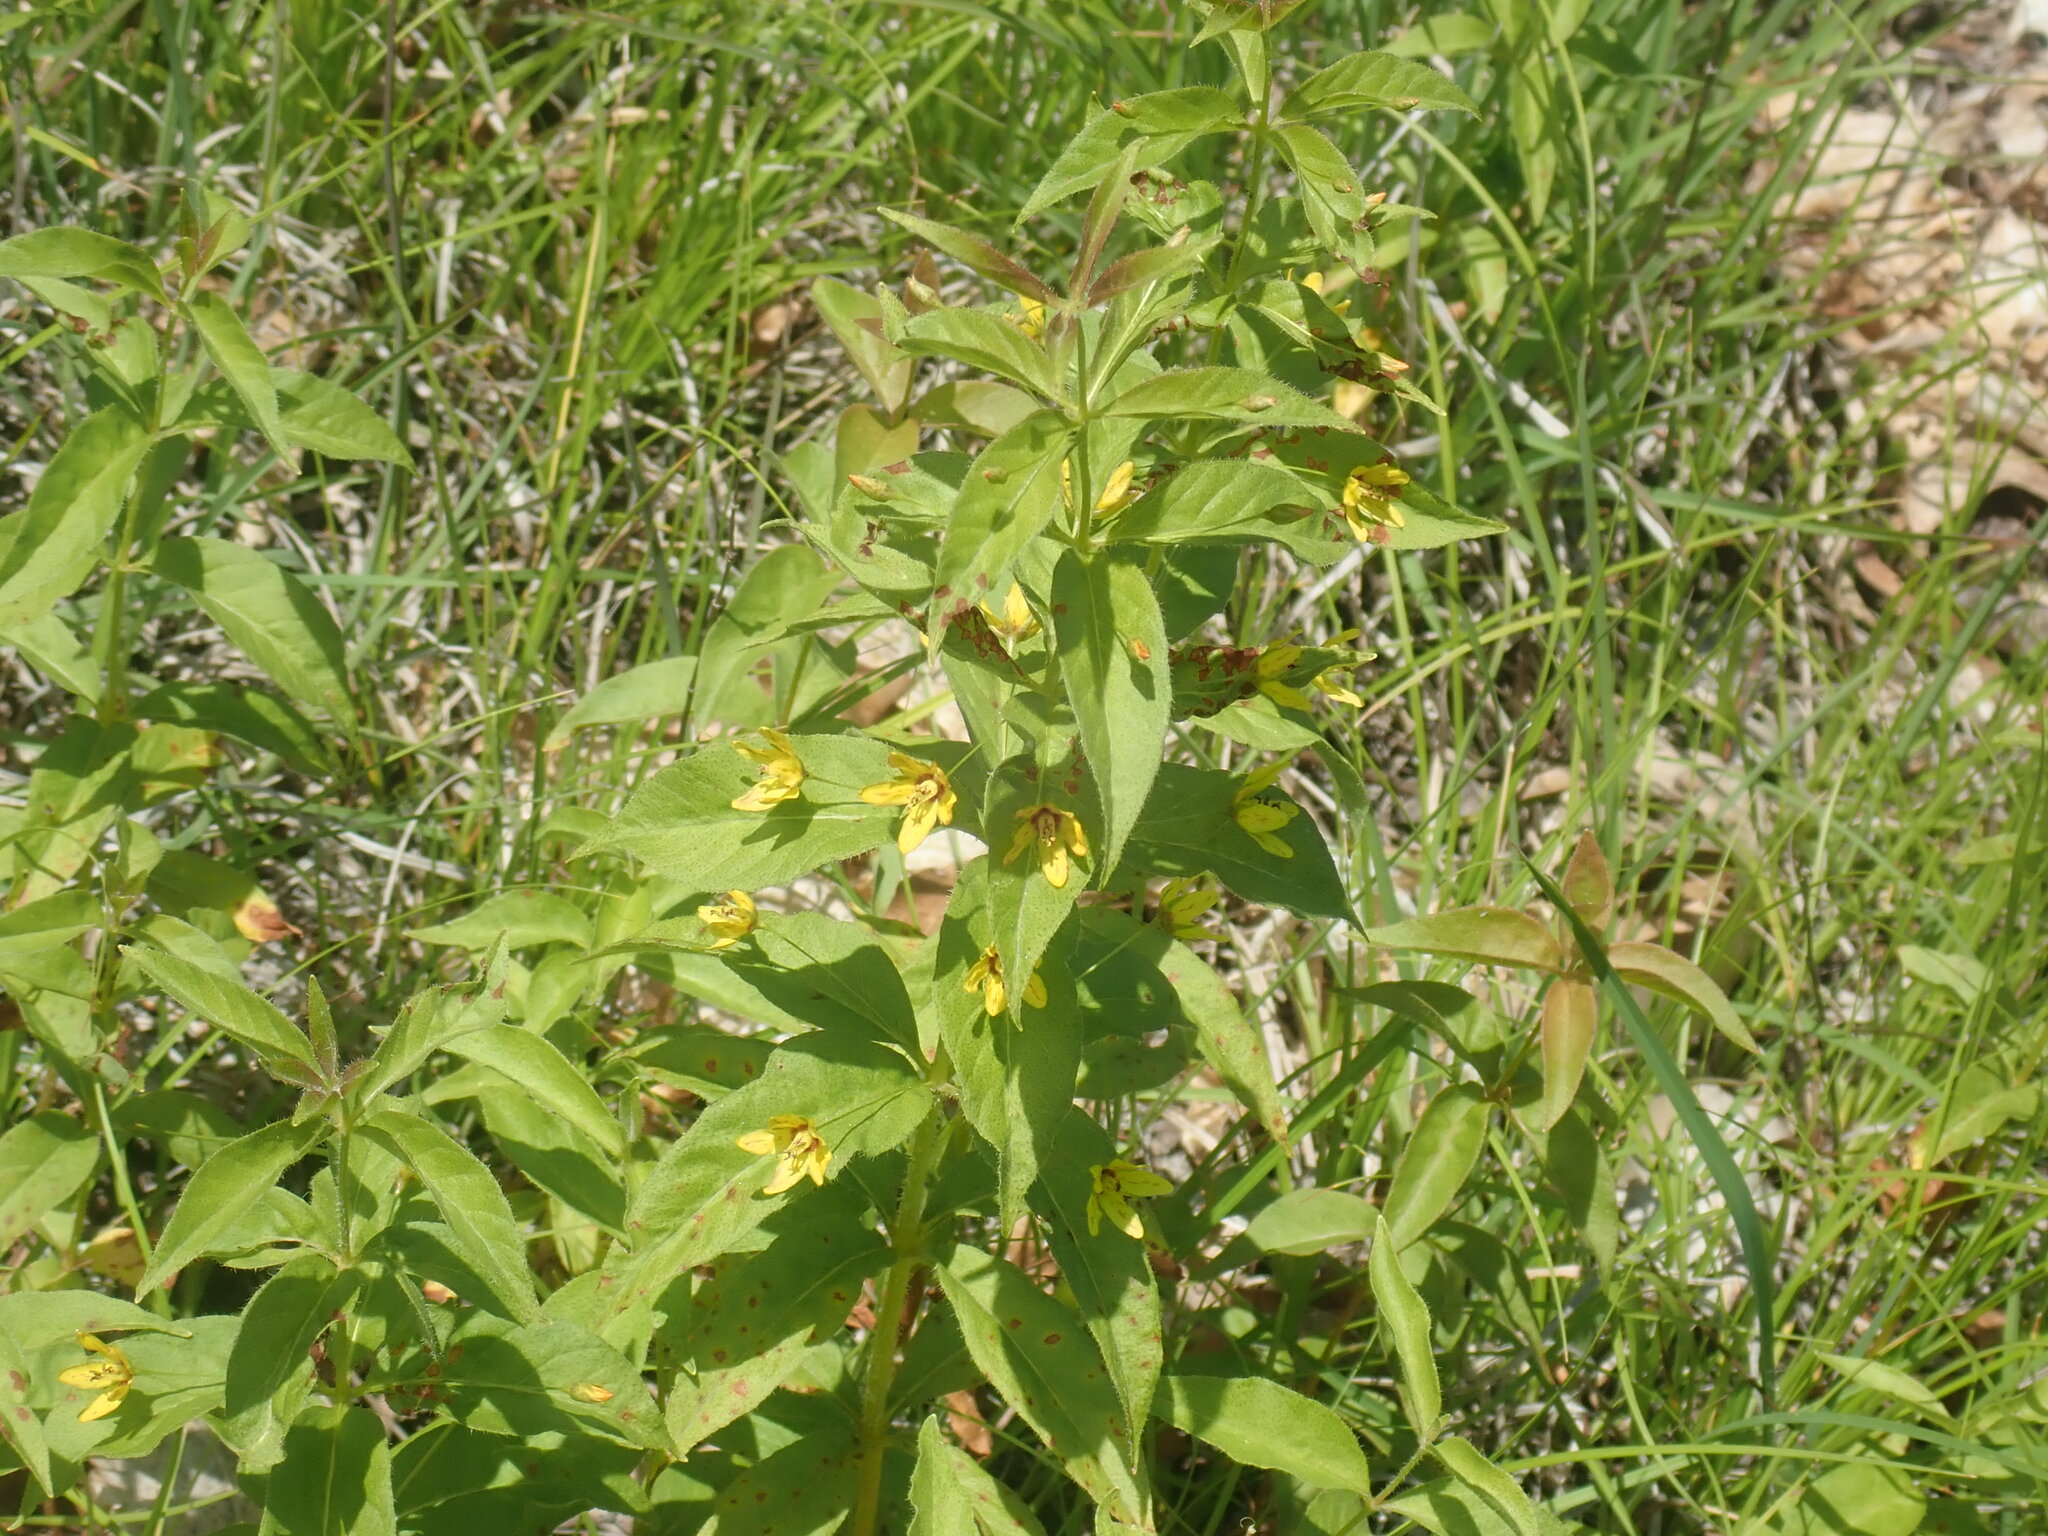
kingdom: Plantae
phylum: Tracheophyta
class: Magnoliopsida
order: Ericales
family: Primulaceae
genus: Lysimachia
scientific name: Lysimachia quadrifolia
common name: Whorled loosestrife
